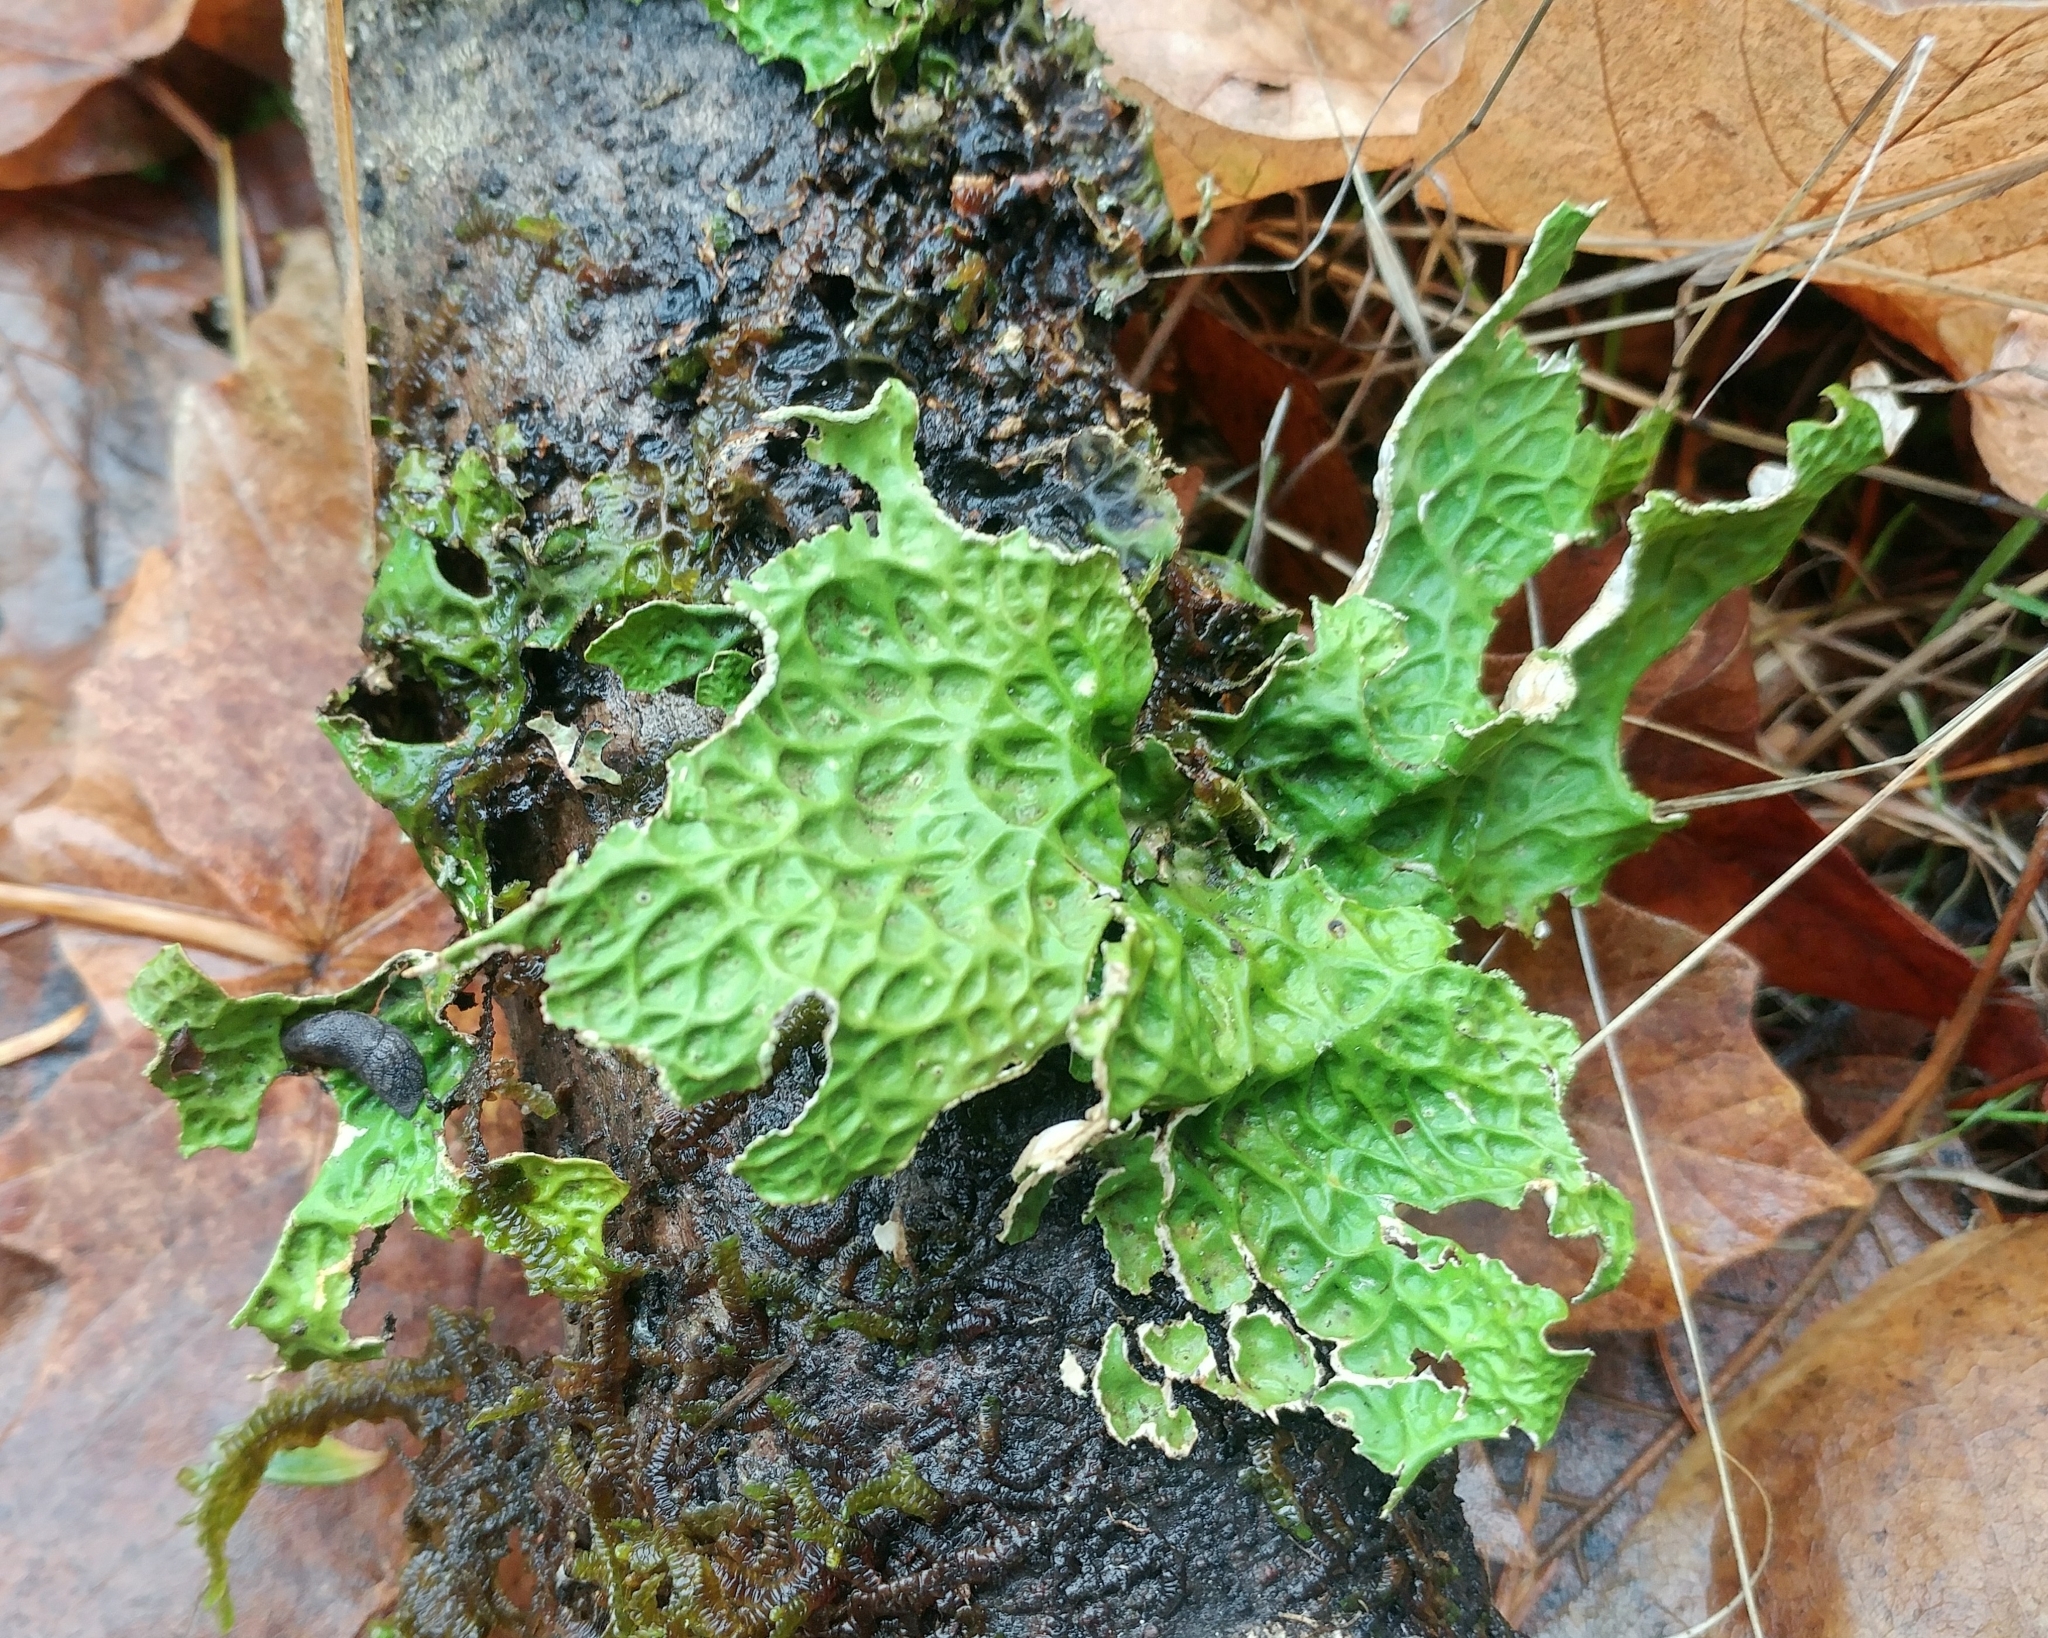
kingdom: Fungi
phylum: Ascomycota
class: Lecanoromycetes
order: Peltigerales
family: Lobariaceae
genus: Lobaria
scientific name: Lobaria pulmonaria
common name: Lungwort
